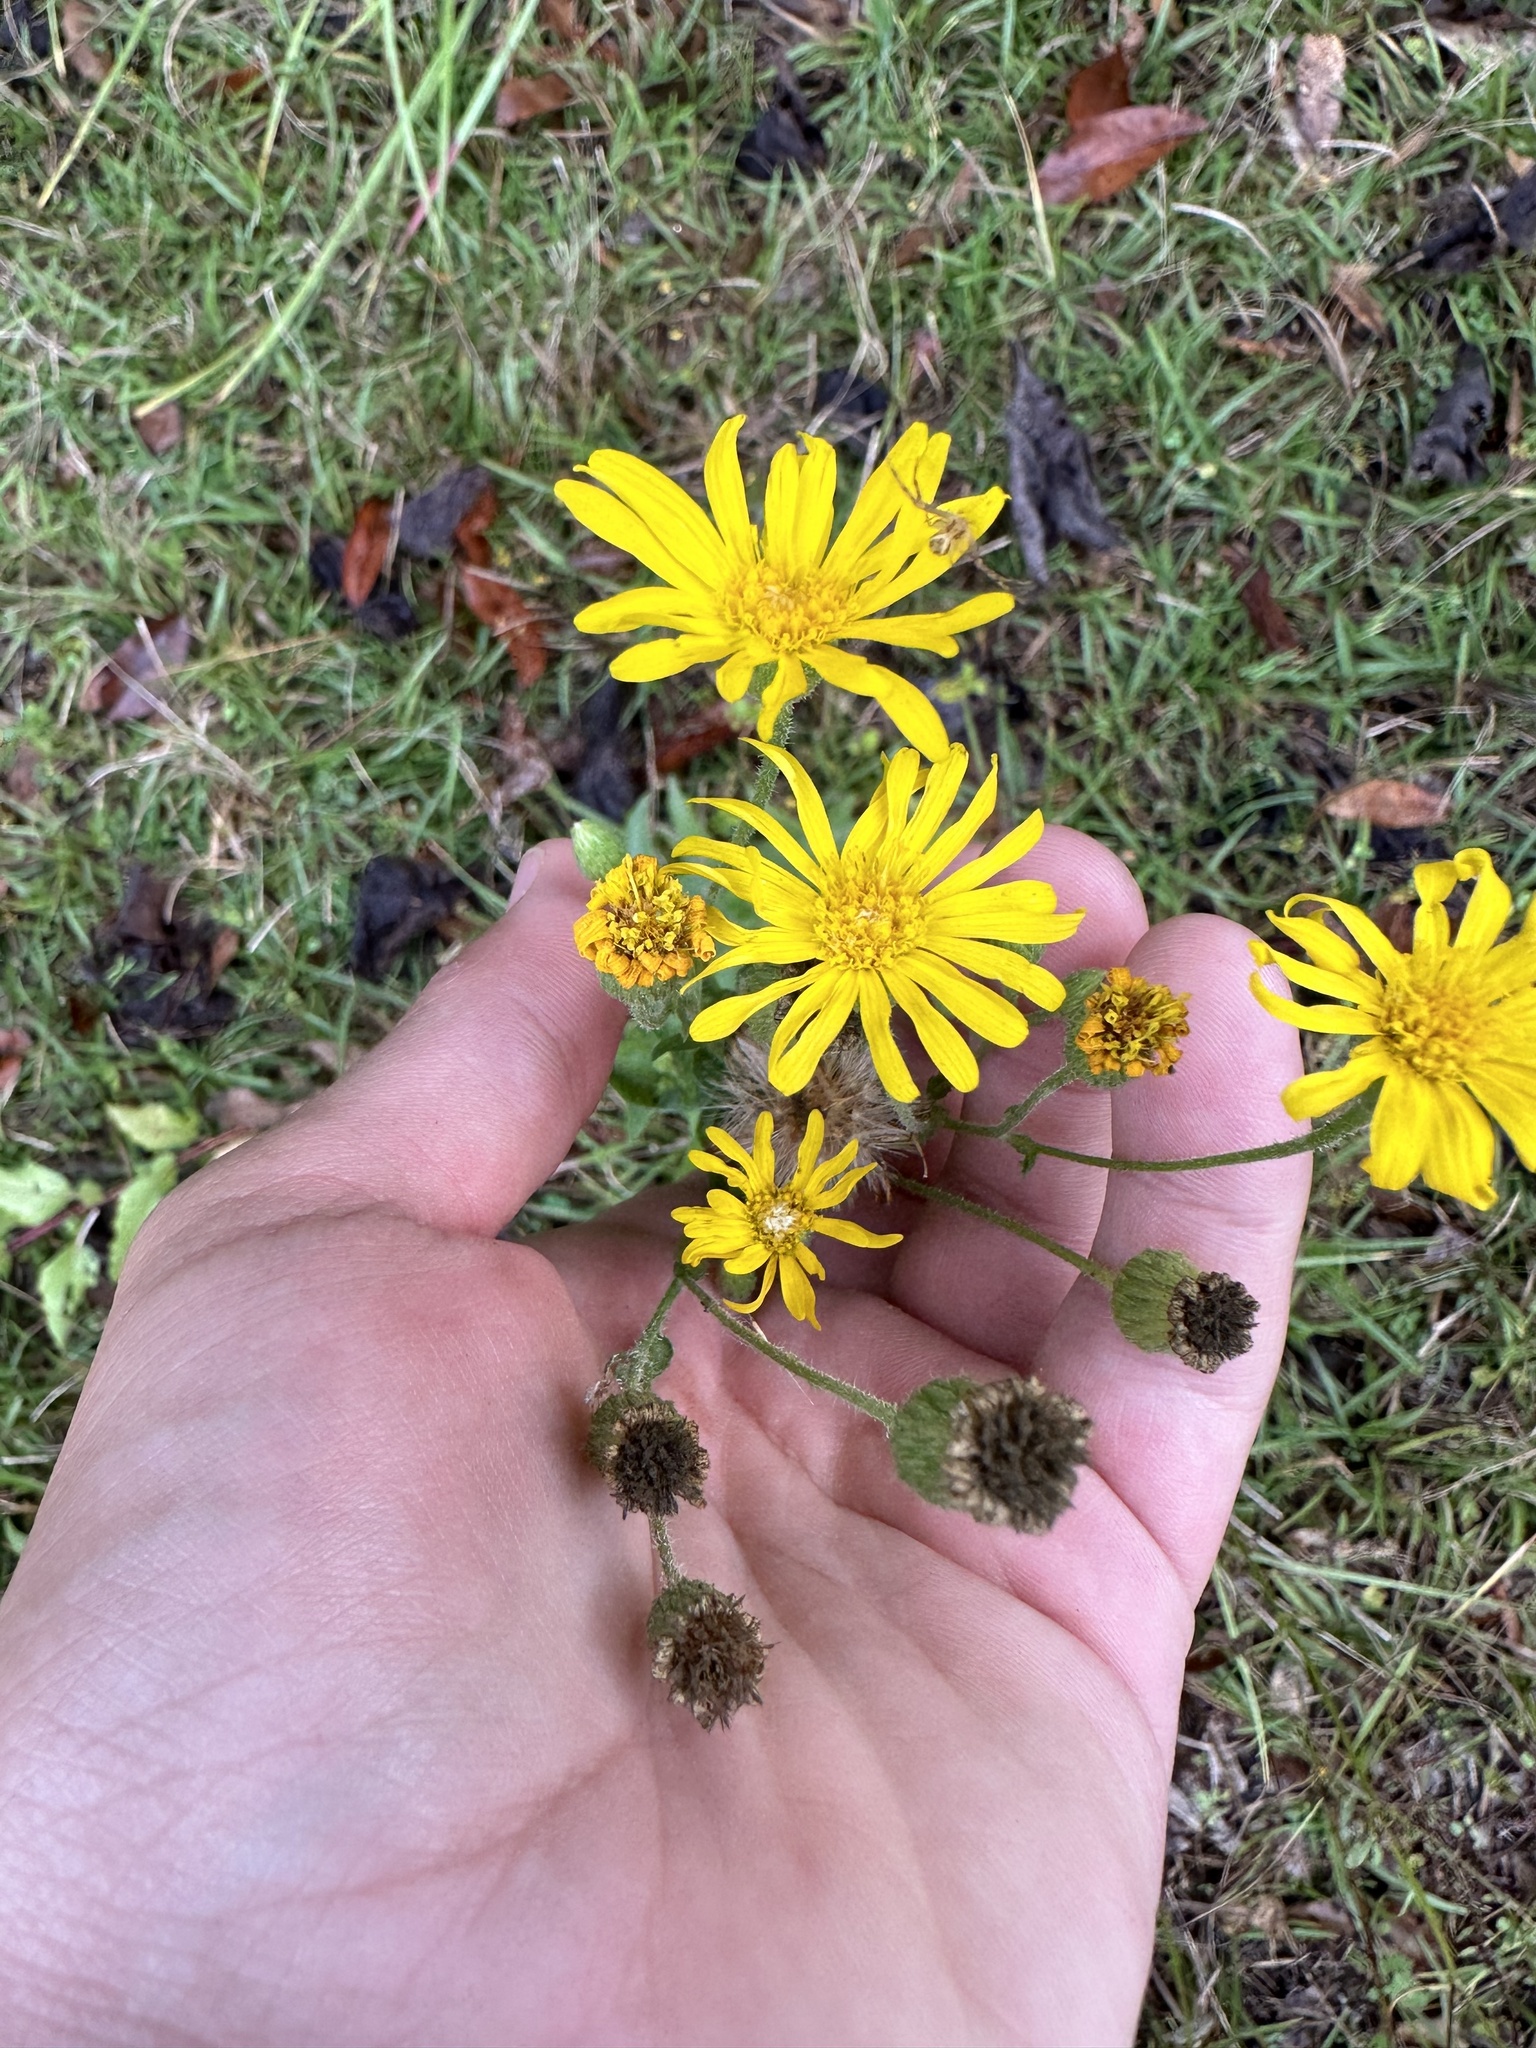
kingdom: Plantae
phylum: Tracheophyta
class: Magnoliopsida
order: Asterales
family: Asteraceae
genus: Heterotheca
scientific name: Heterotheca subaxillaris
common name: Camphorweed
